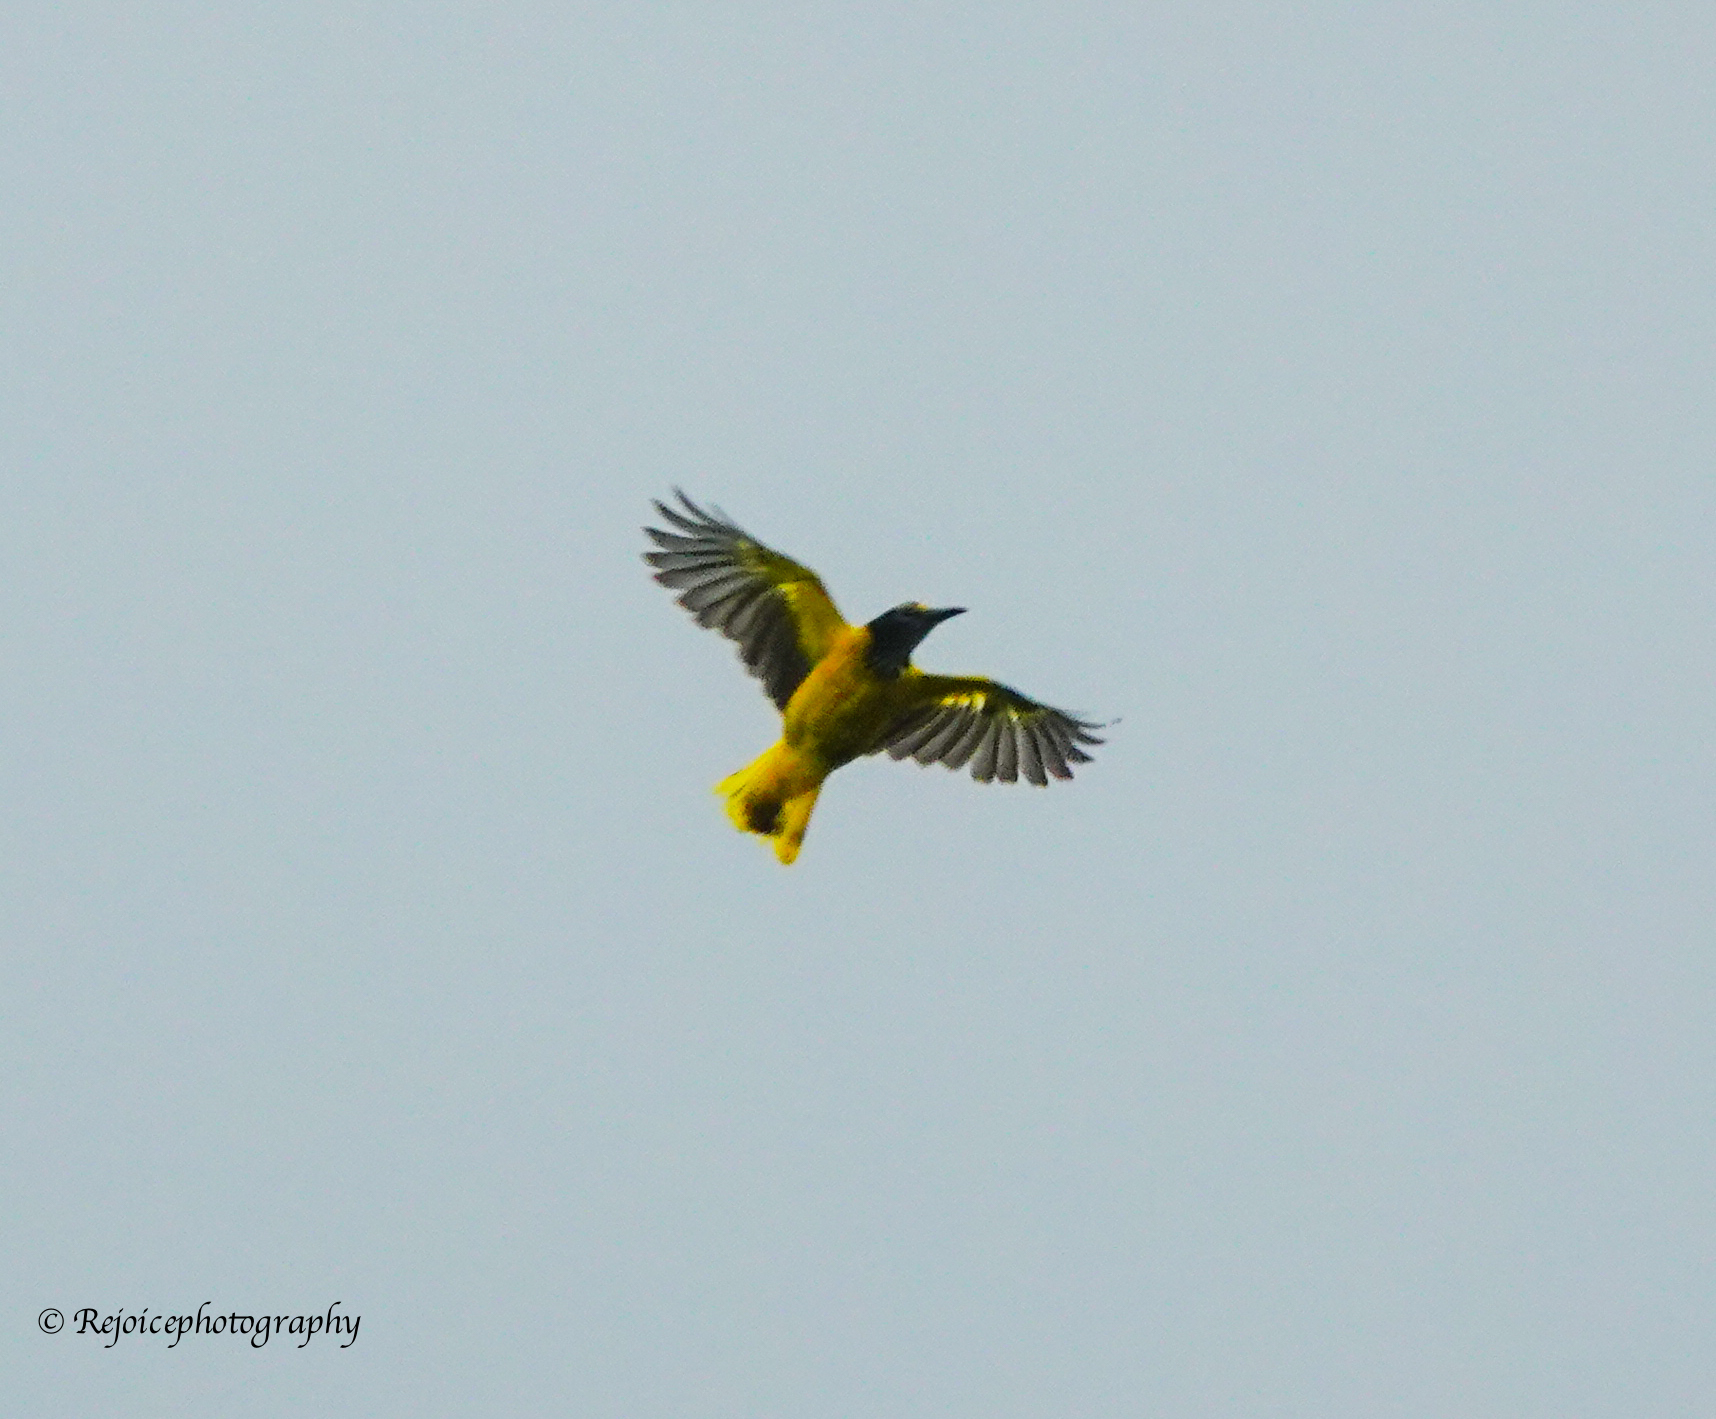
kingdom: Animalia
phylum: Chordata
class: Aves
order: Passeriformes
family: Oriolidae
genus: Oriolus
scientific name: Oriolus xanthornus
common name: Black-hooded oriole
